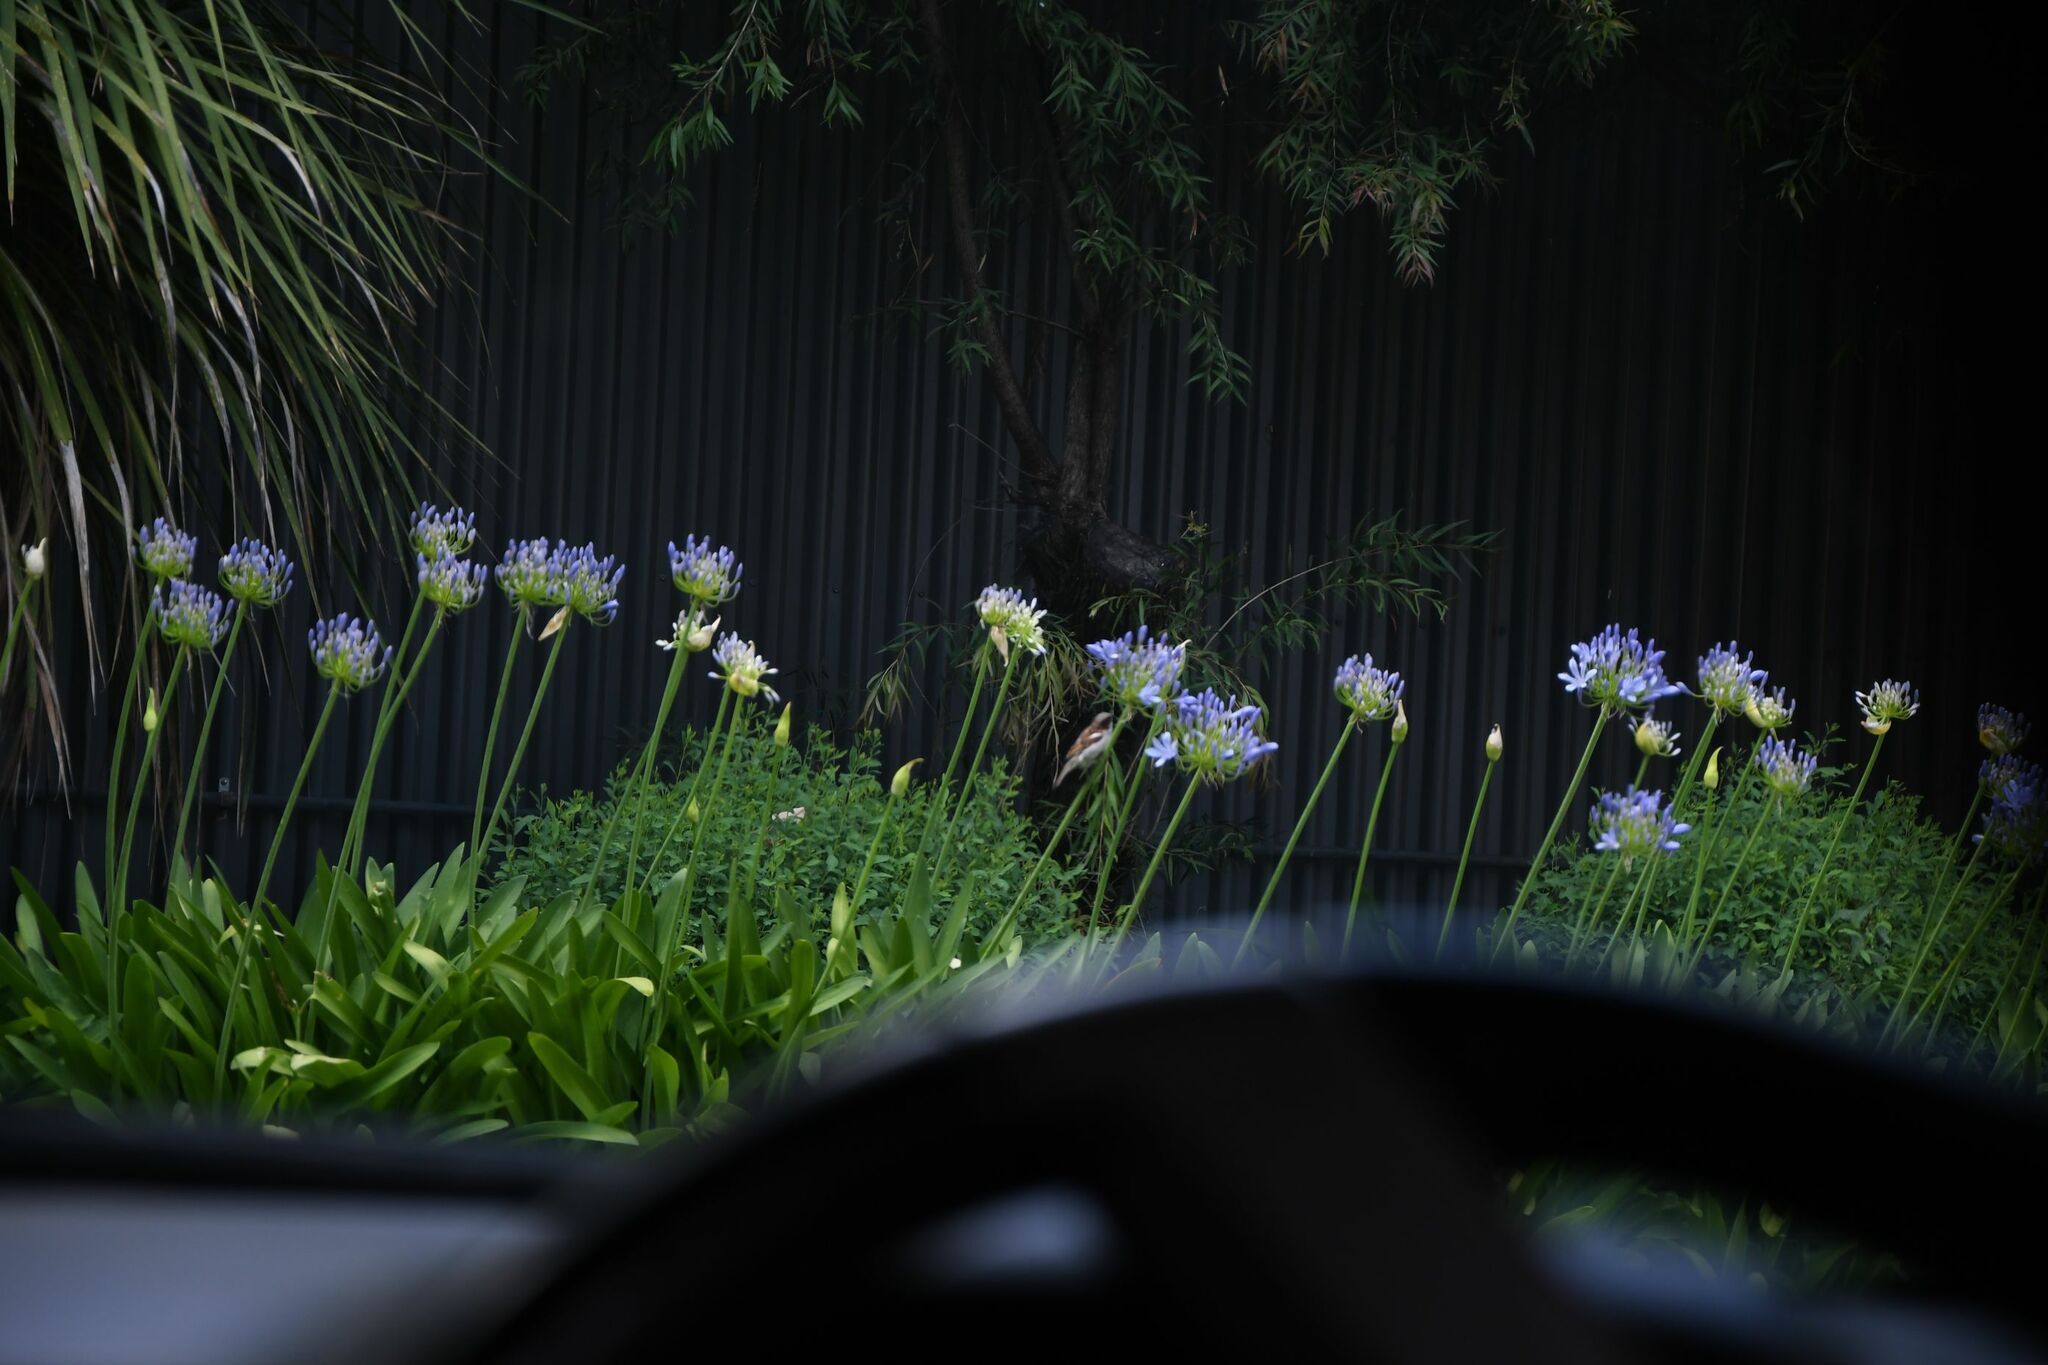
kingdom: Animalia
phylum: Chordata
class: Aves
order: Passeriformes
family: Passeridae
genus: Passer
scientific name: Passer domesticus
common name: House sparrow
